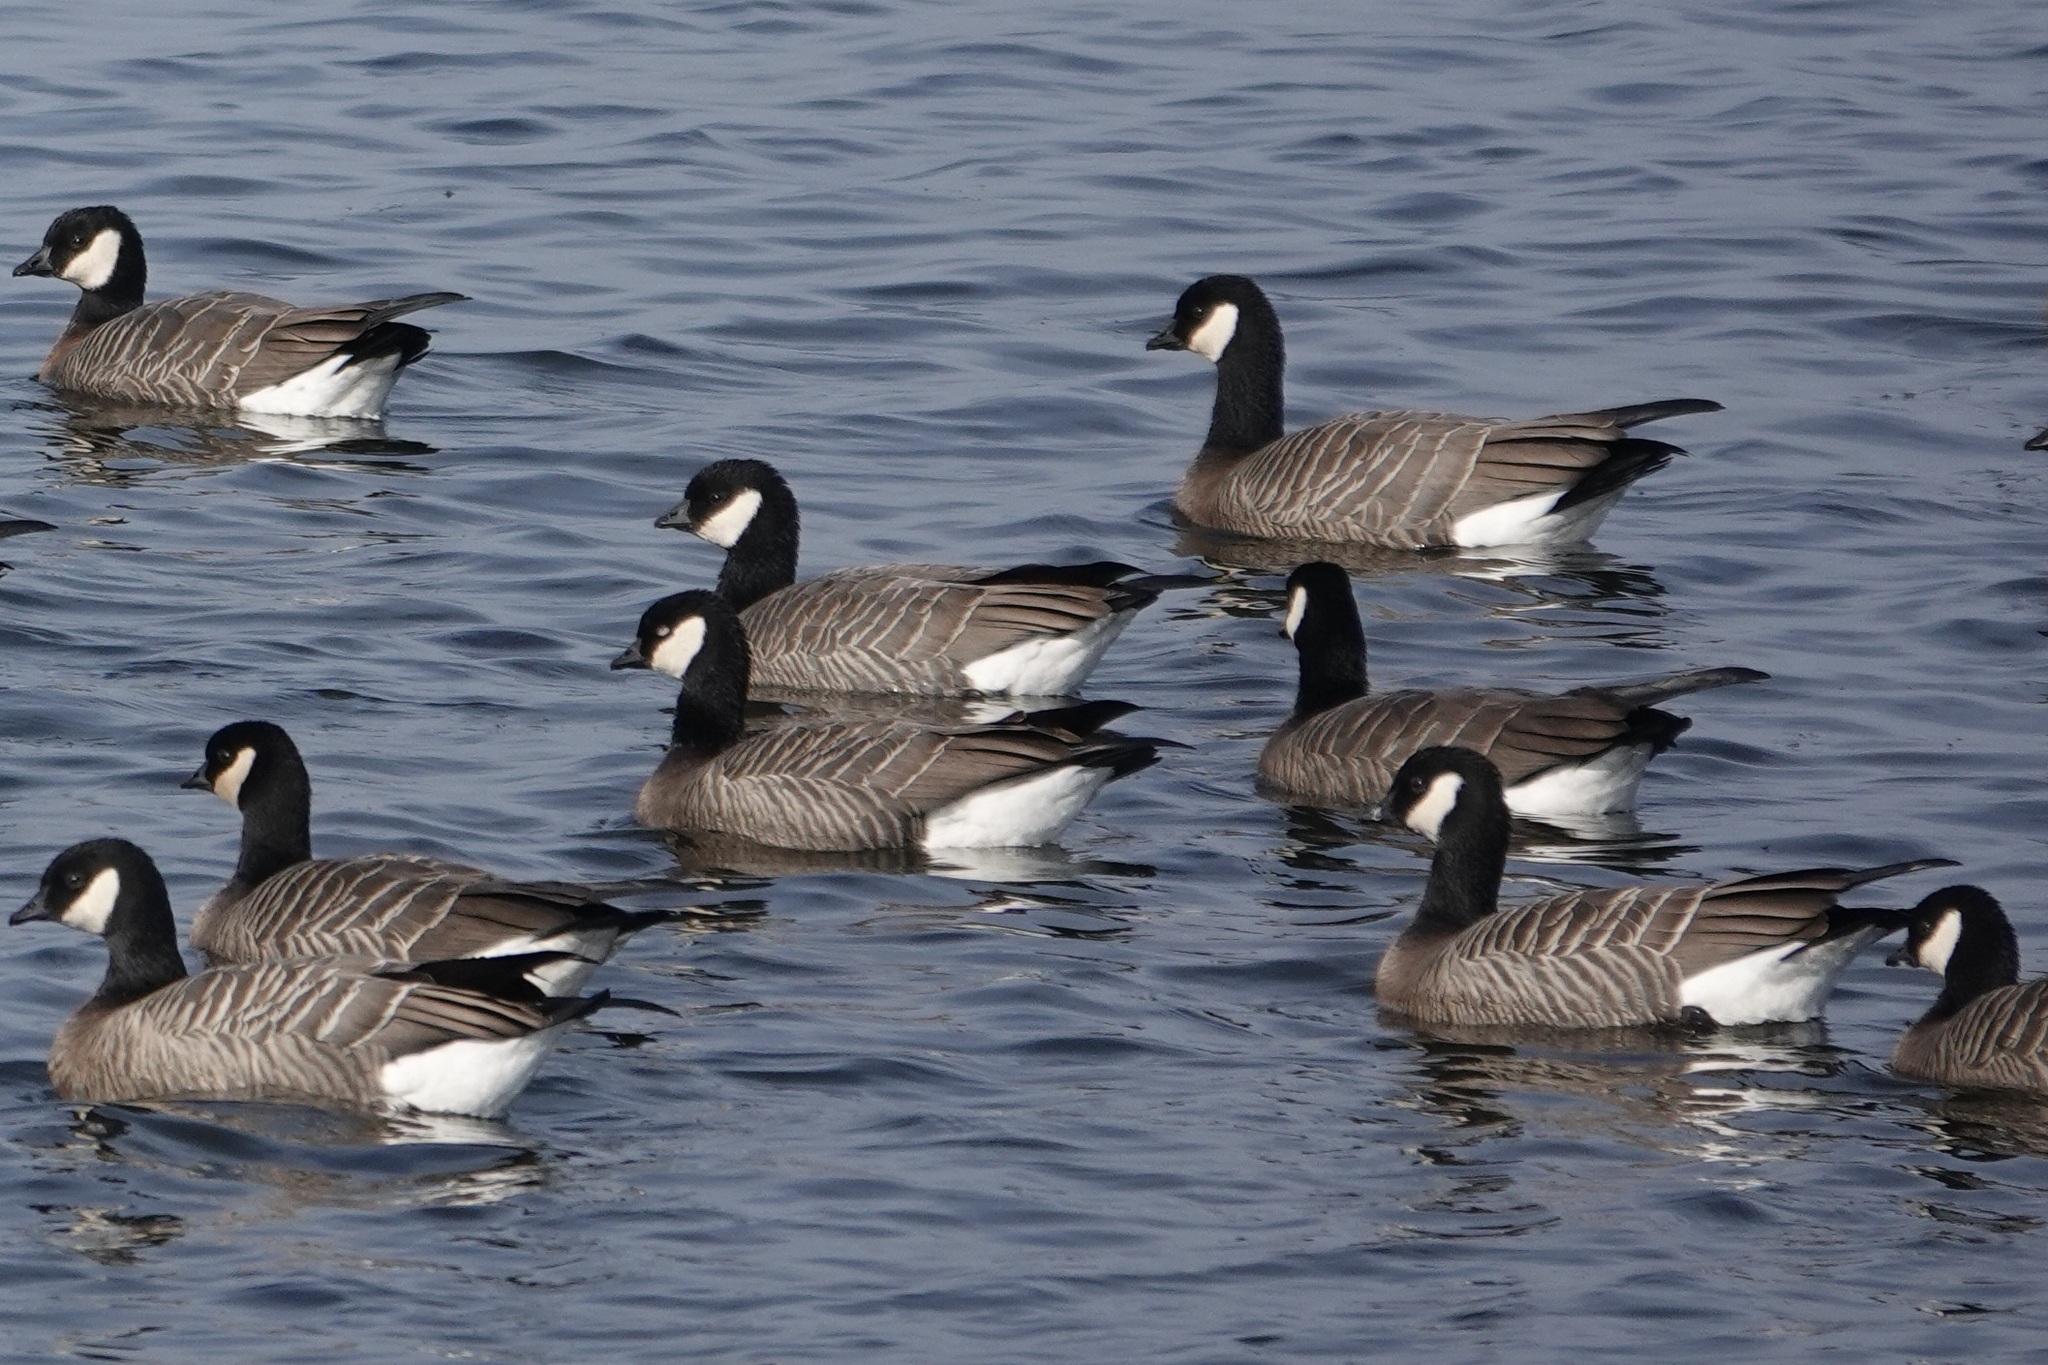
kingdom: Animalia
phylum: Chordata
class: Aves
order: Anseriformes
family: Anatidae
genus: Branta
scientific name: Branta hutchinsii
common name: Cackling goose
